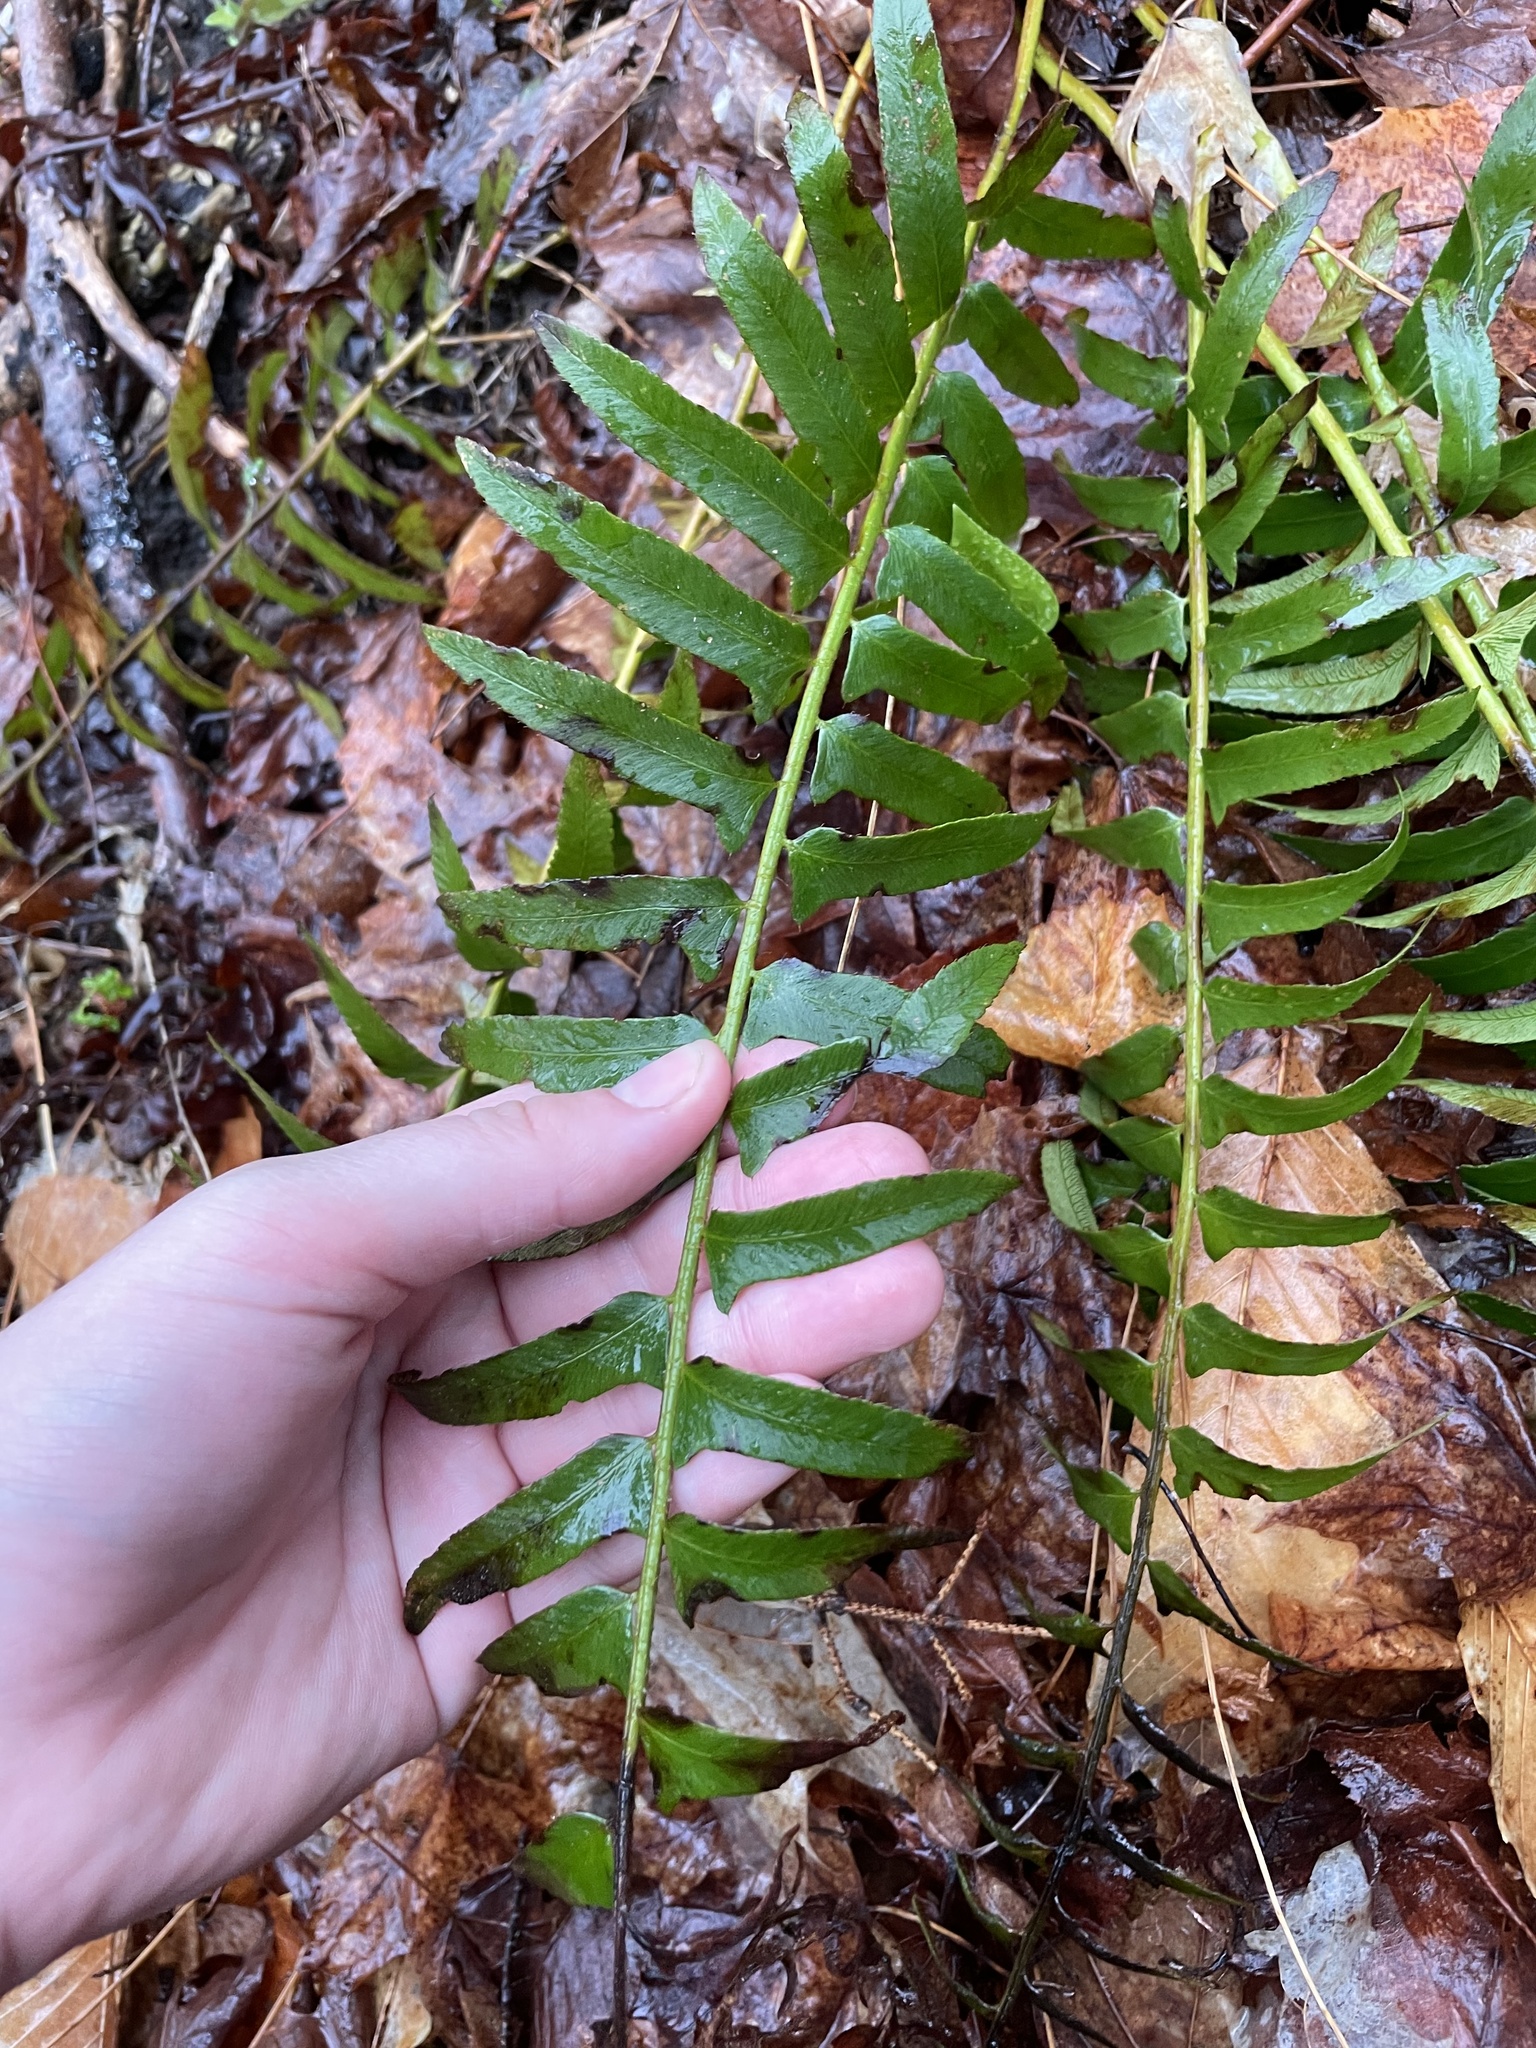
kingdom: Plantae
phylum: Tracheophyta
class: Polypodiopsida
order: Polypodiales
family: Dryopteridaceae
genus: Polystichum
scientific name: Polystichum acrostichoides
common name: Christmas fern
